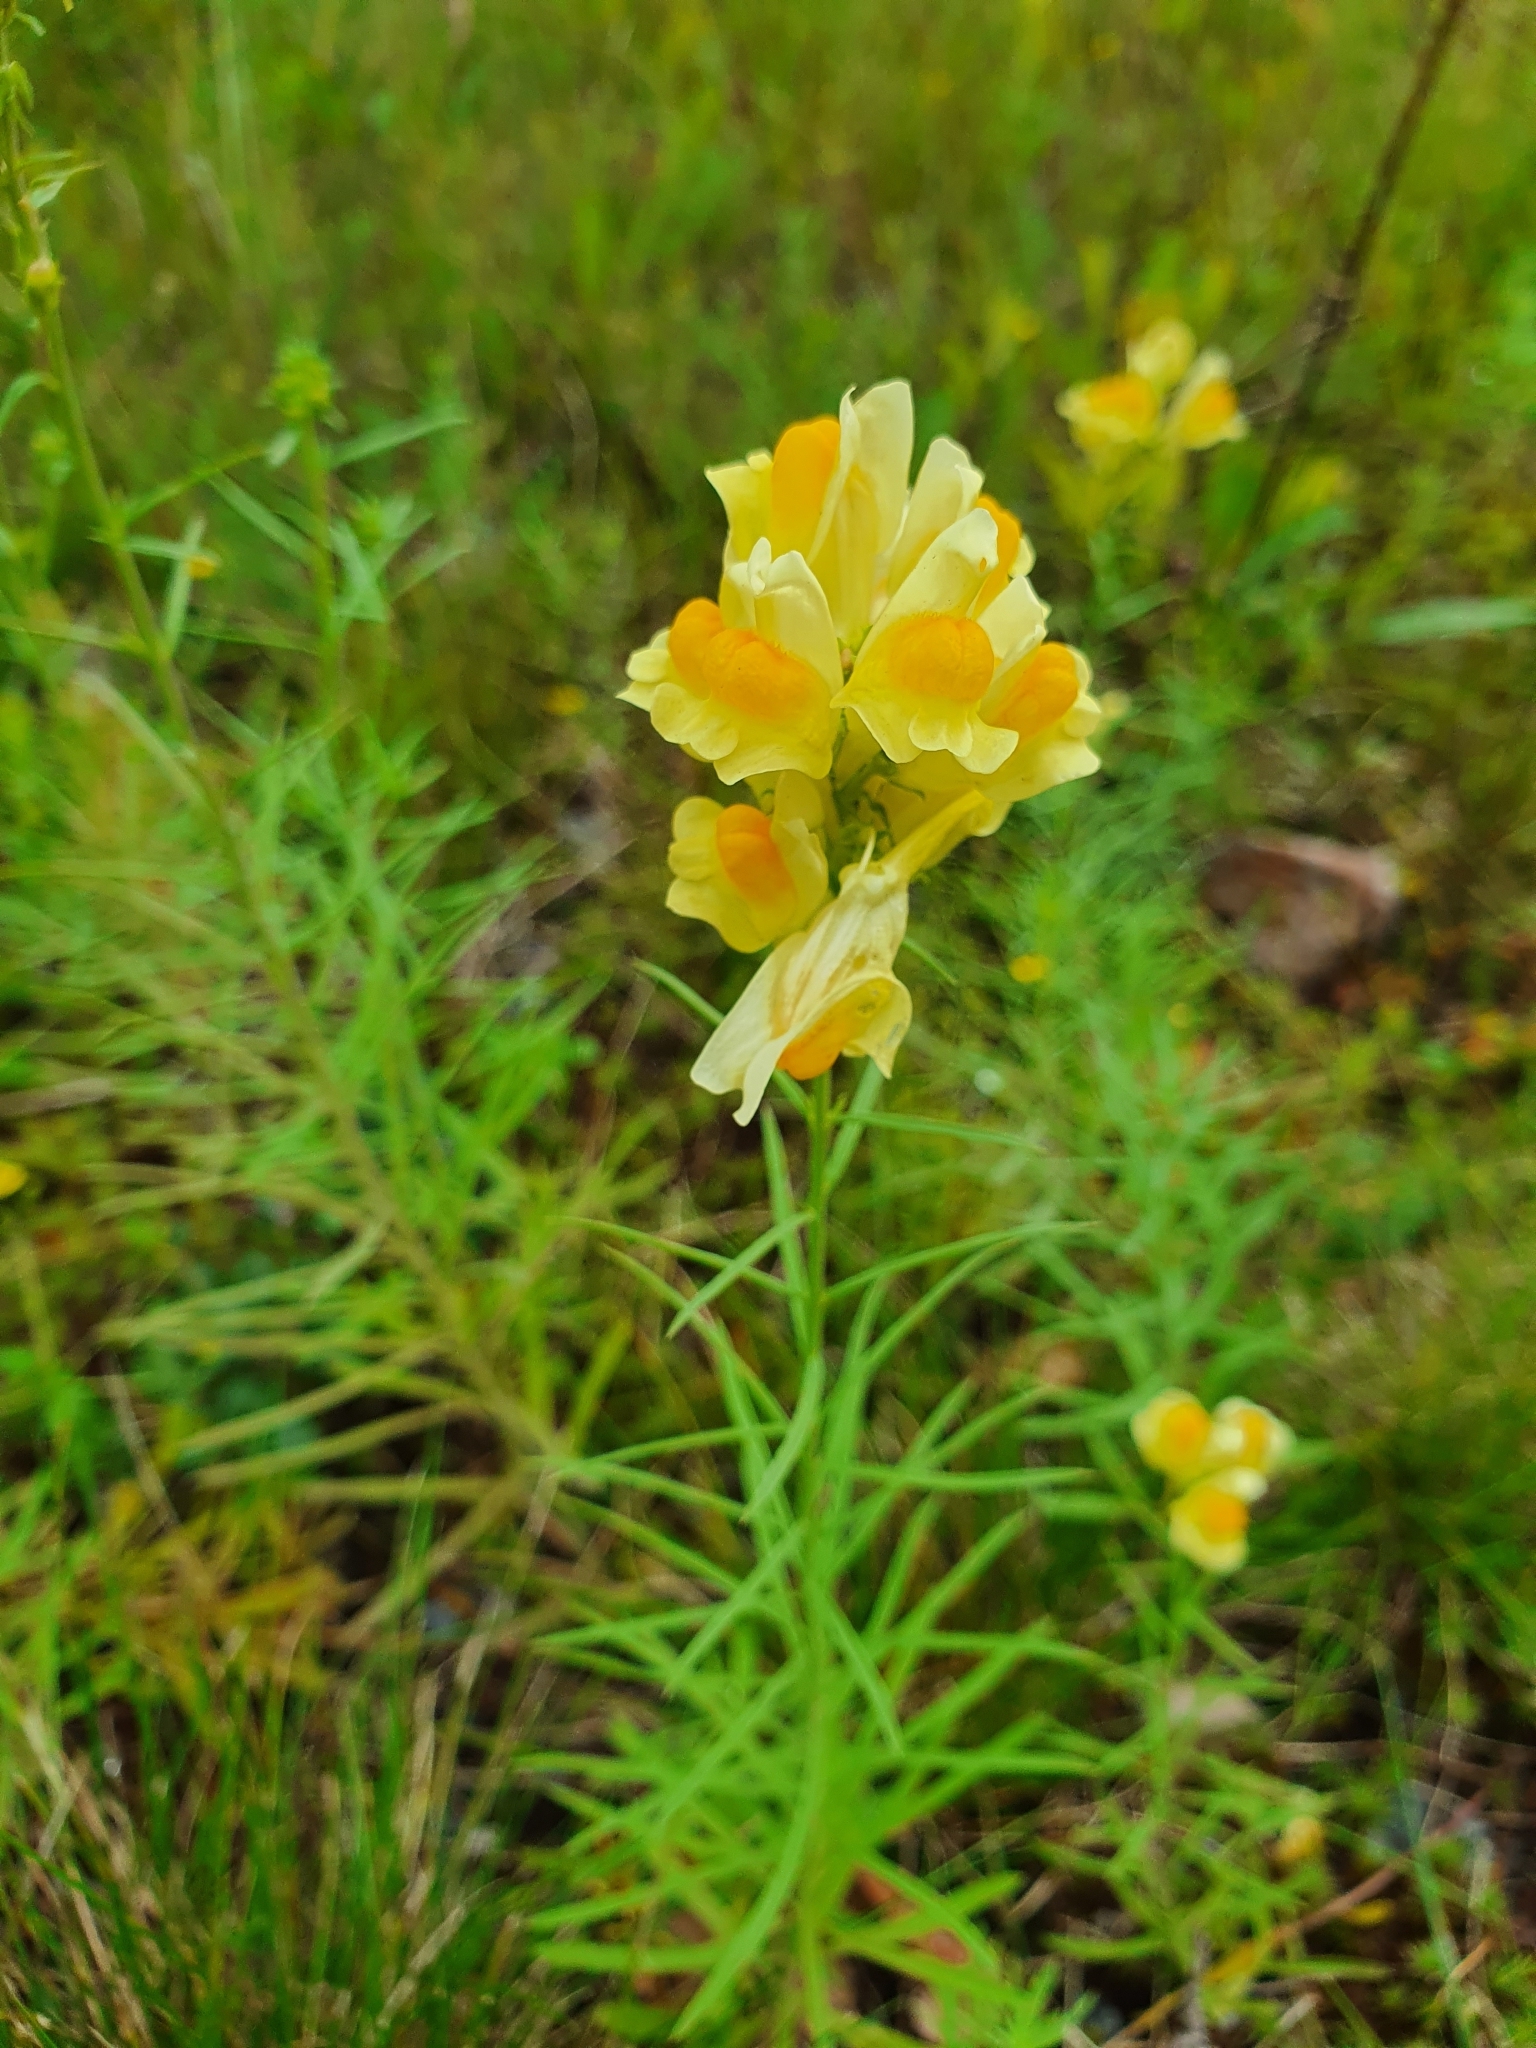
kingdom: Plantae
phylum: Tracheophyta
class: Magnoliopsida
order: Lamiales
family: Plantaginaceae
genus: Linaria
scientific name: Linaria vulgaris
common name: Butter and eggs
